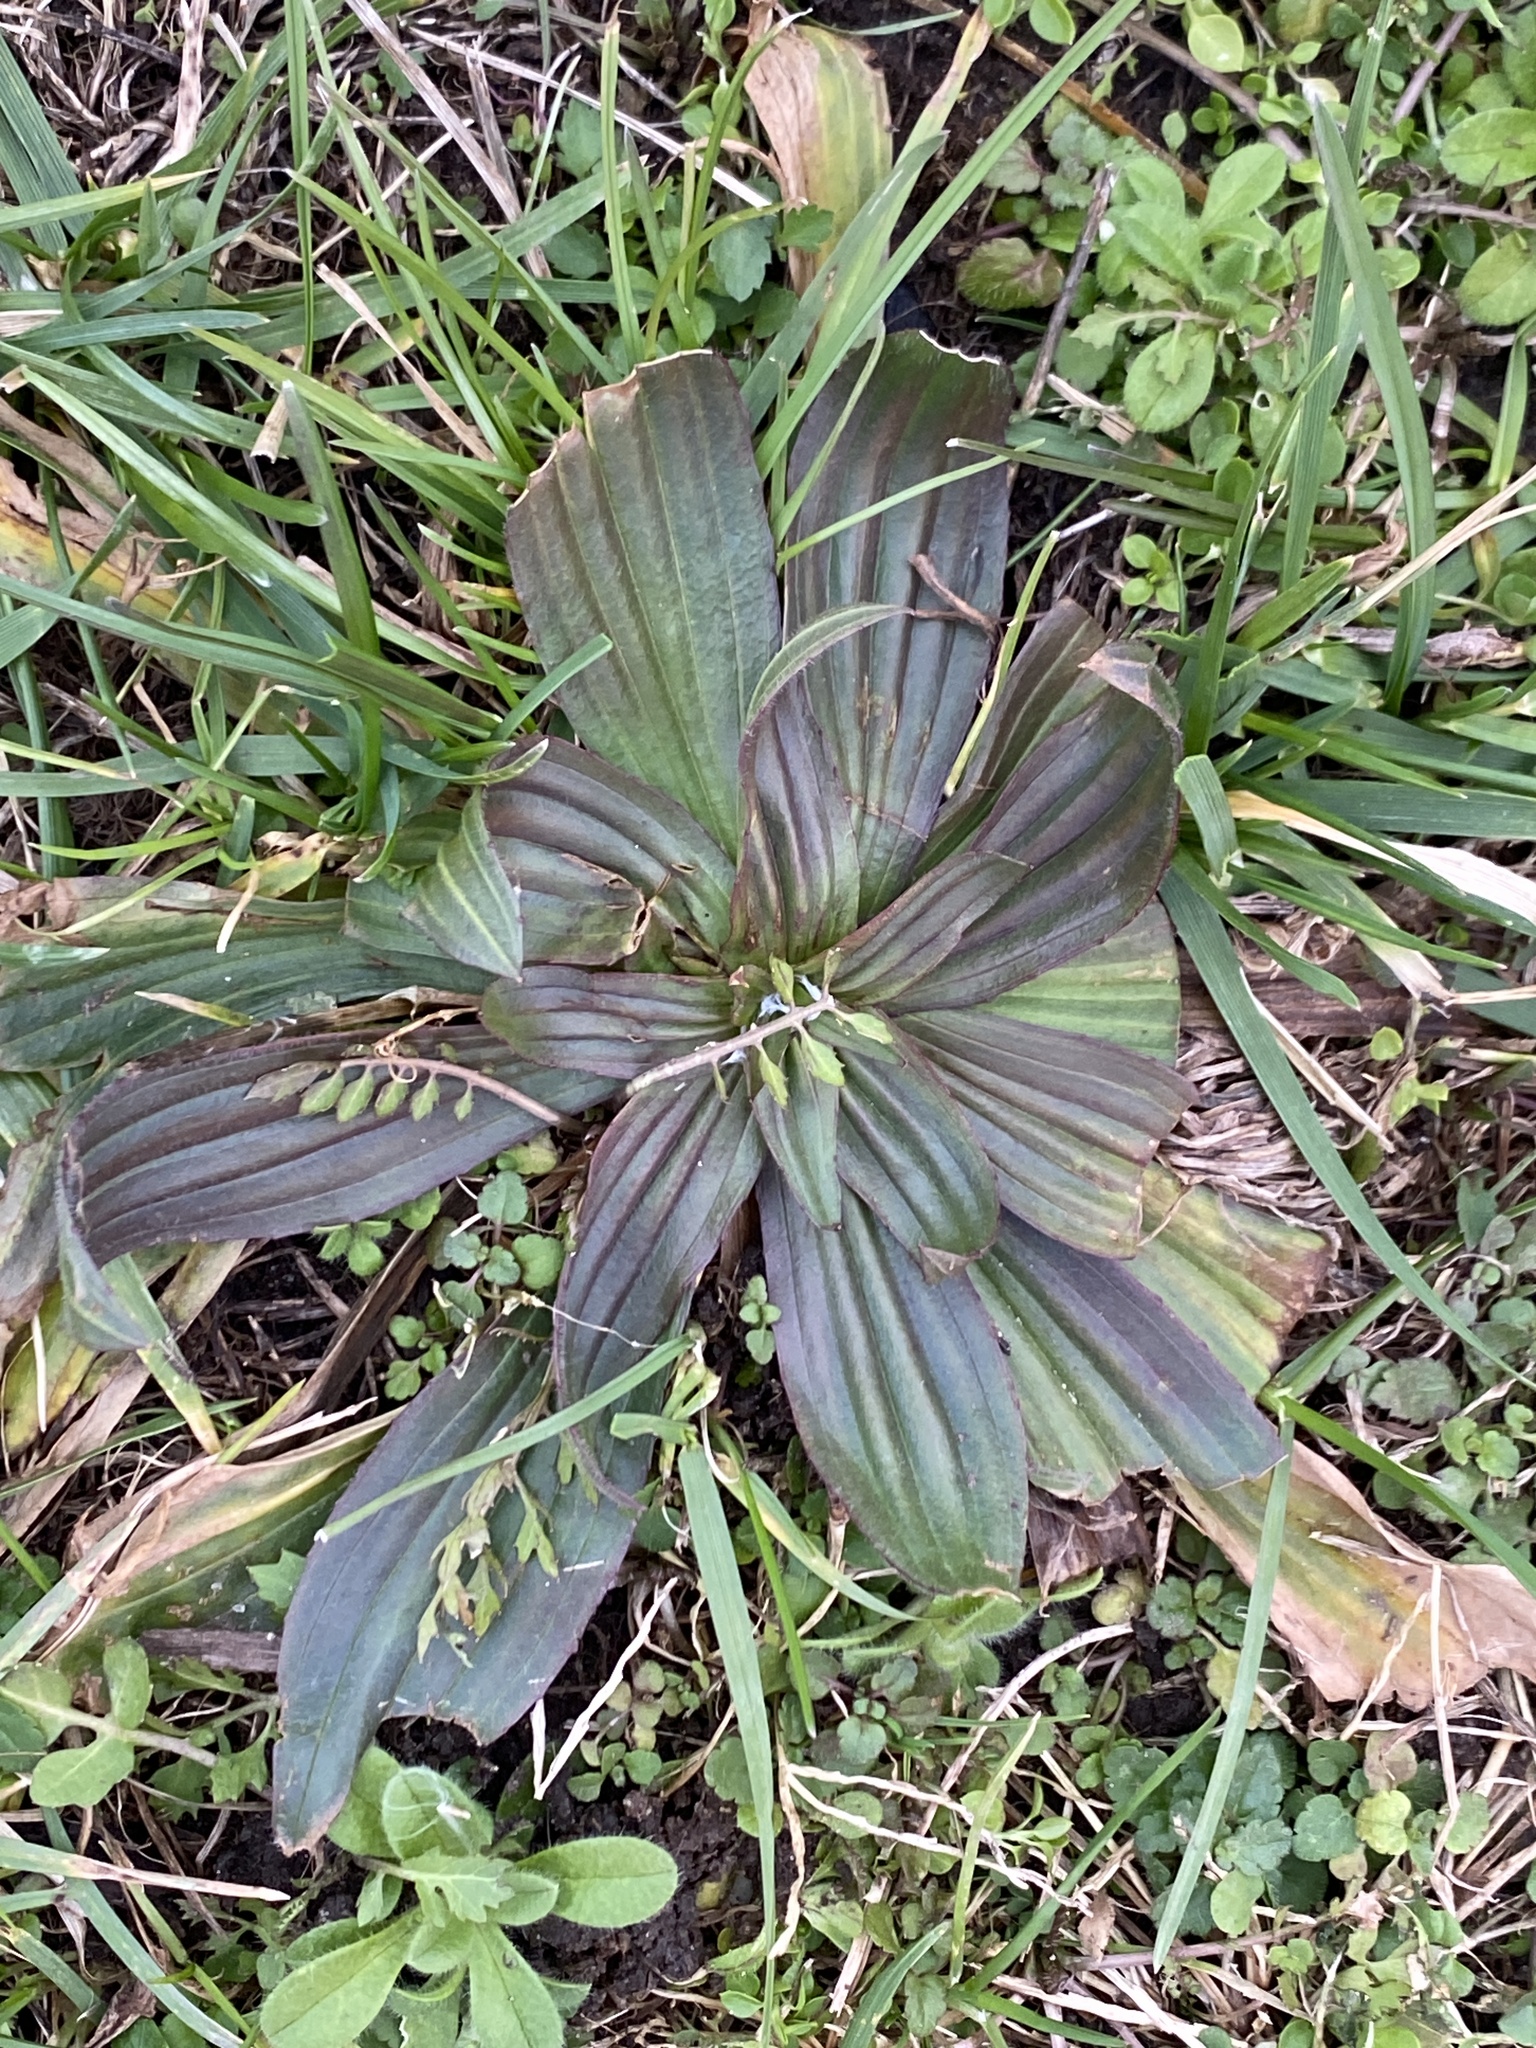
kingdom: Plantae
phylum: Tracheophyta
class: Magnoliopsida
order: Lamiales
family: Plantaginaceae
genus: Plantago
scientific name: Plantago lanceolata
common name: Ribwort plantain
